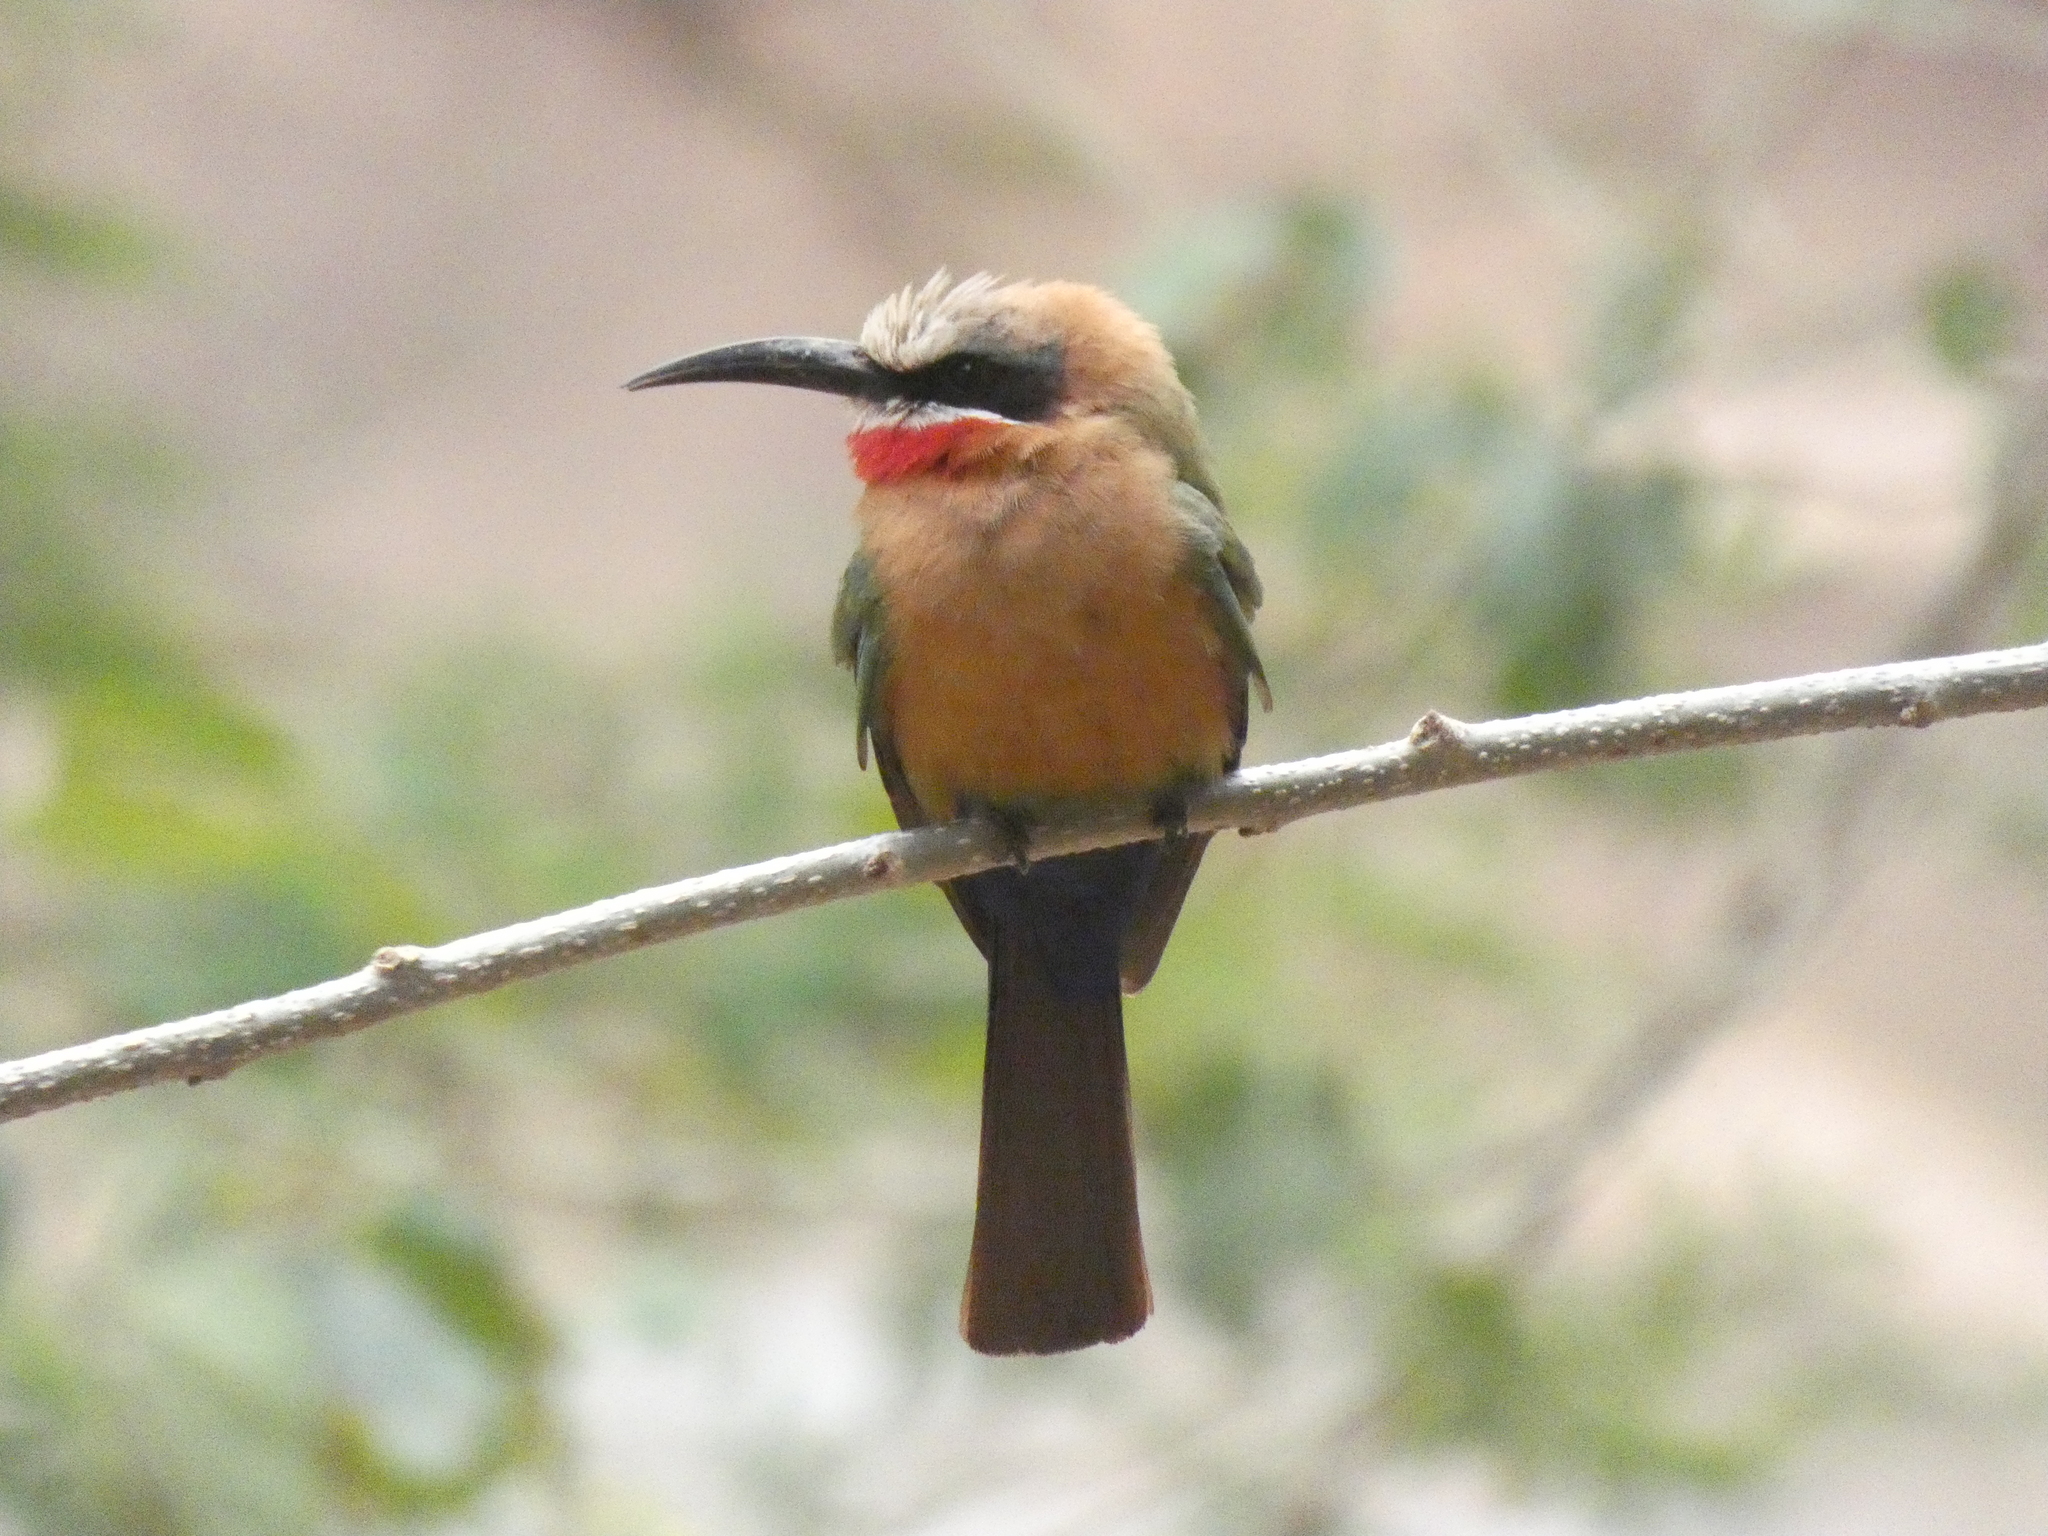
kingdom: Animalia
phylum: Chordata
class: Aves
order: Coraciiformes
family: Meropidae
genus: Merops
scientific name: Merops bullockoides
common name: White-fronted bee-eater
